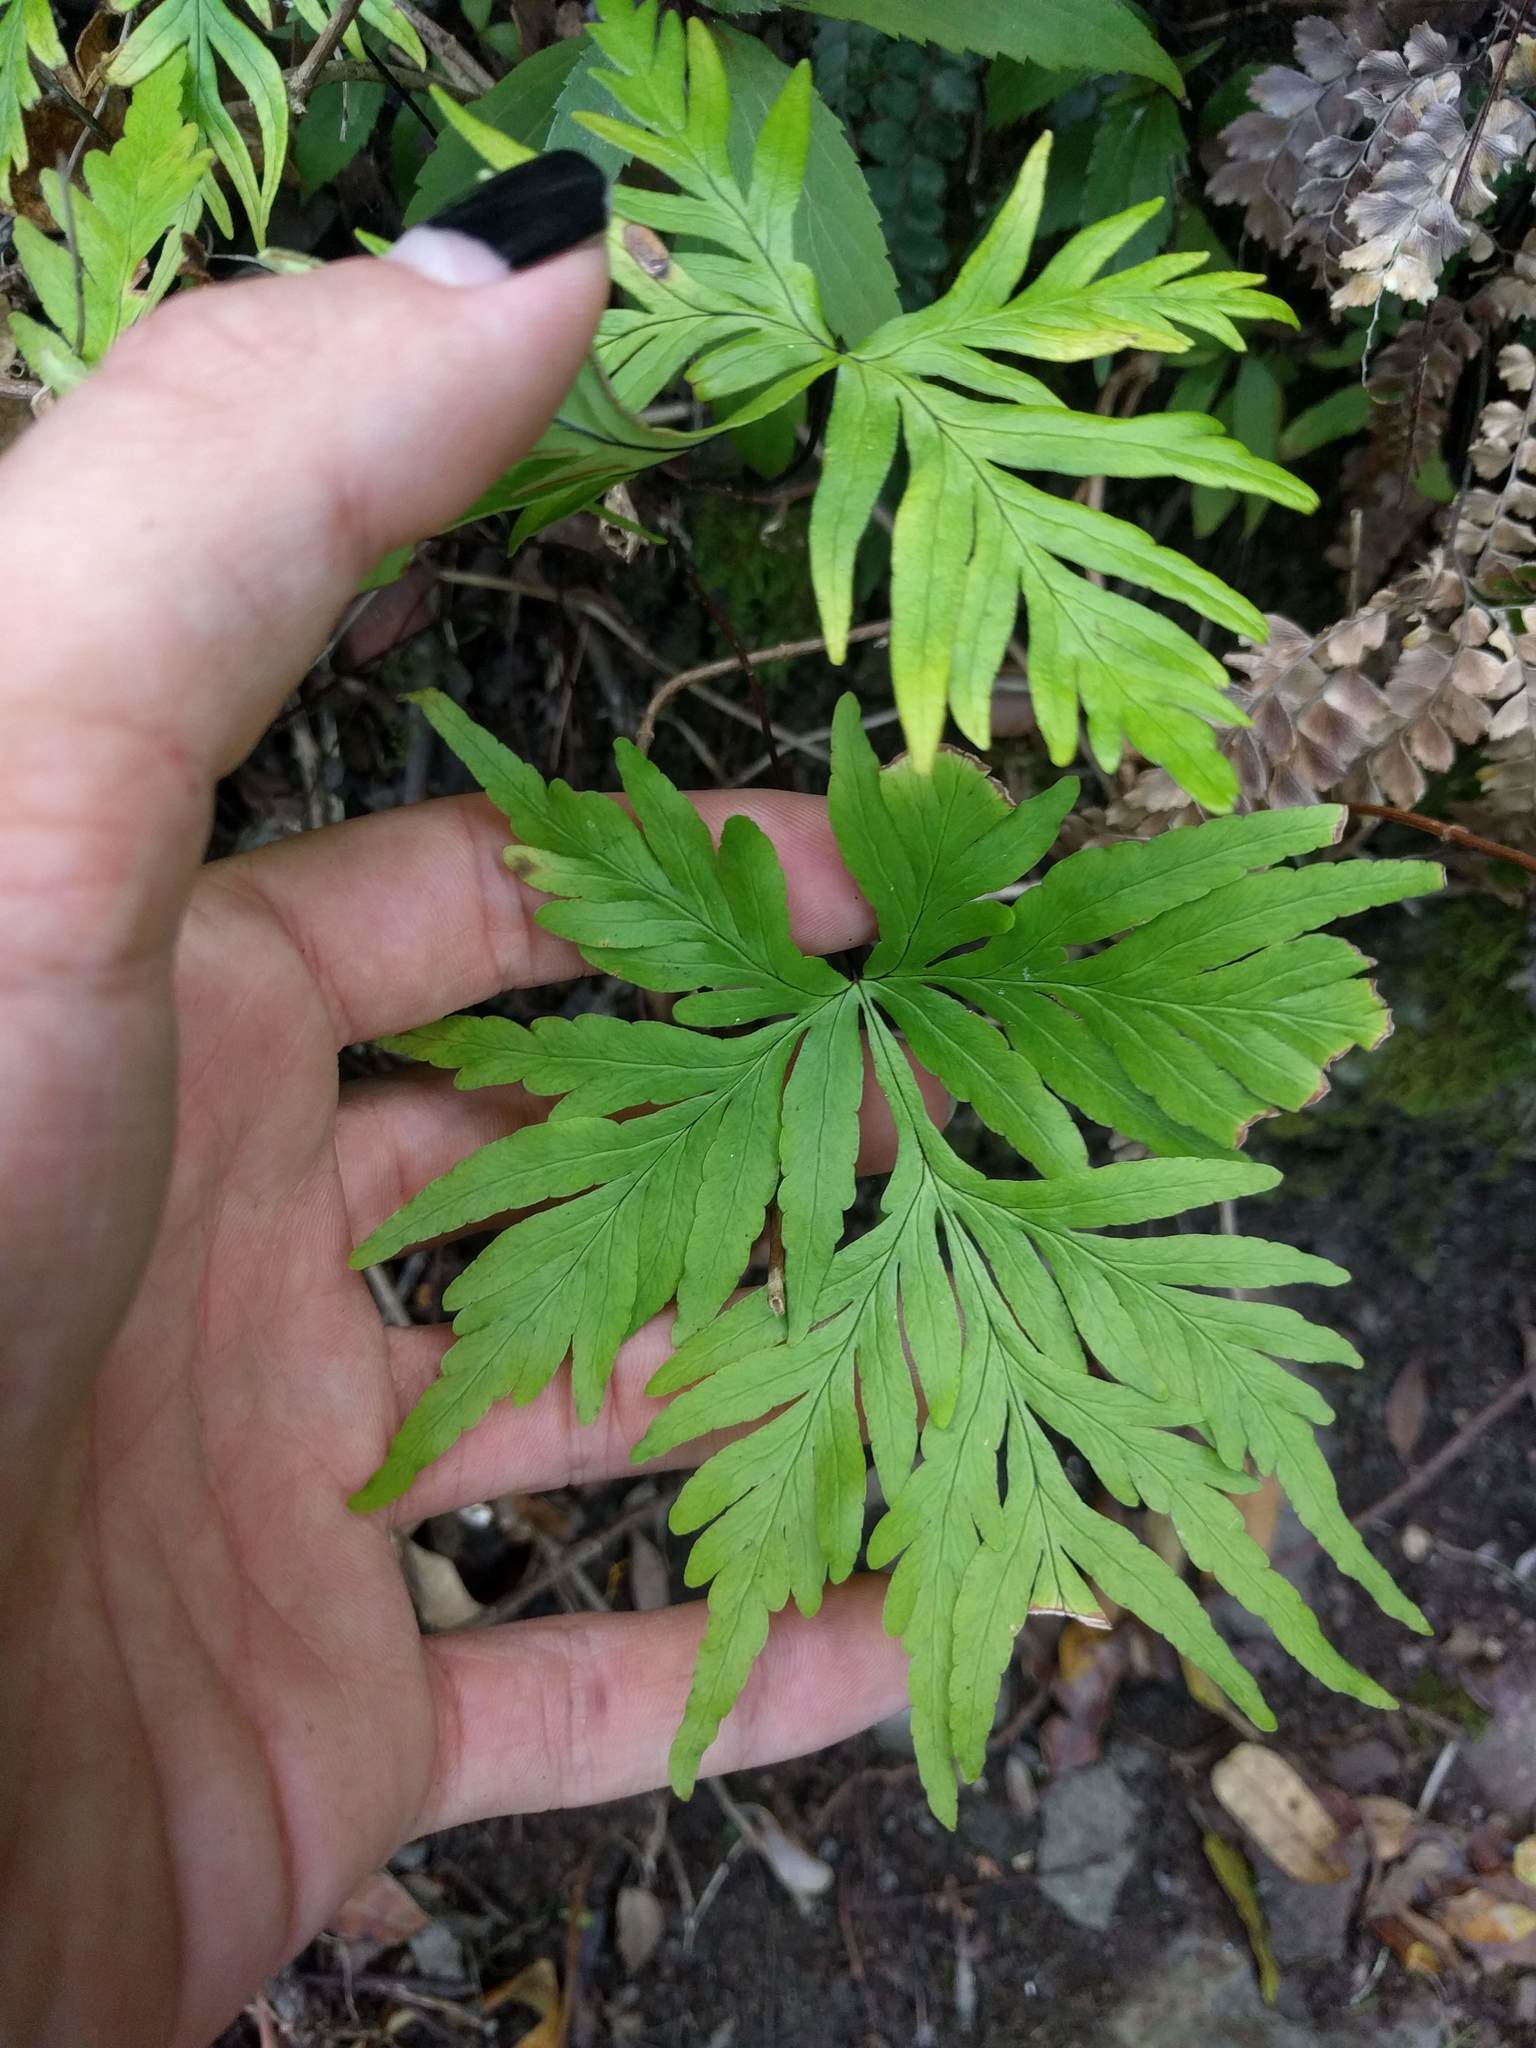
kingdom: Plantae
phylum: Tracheophyta
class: Polypodiopsida
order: Polypodiales
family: Pteridaceae
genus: Doryopteris
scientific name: Doryopteris decipiens
